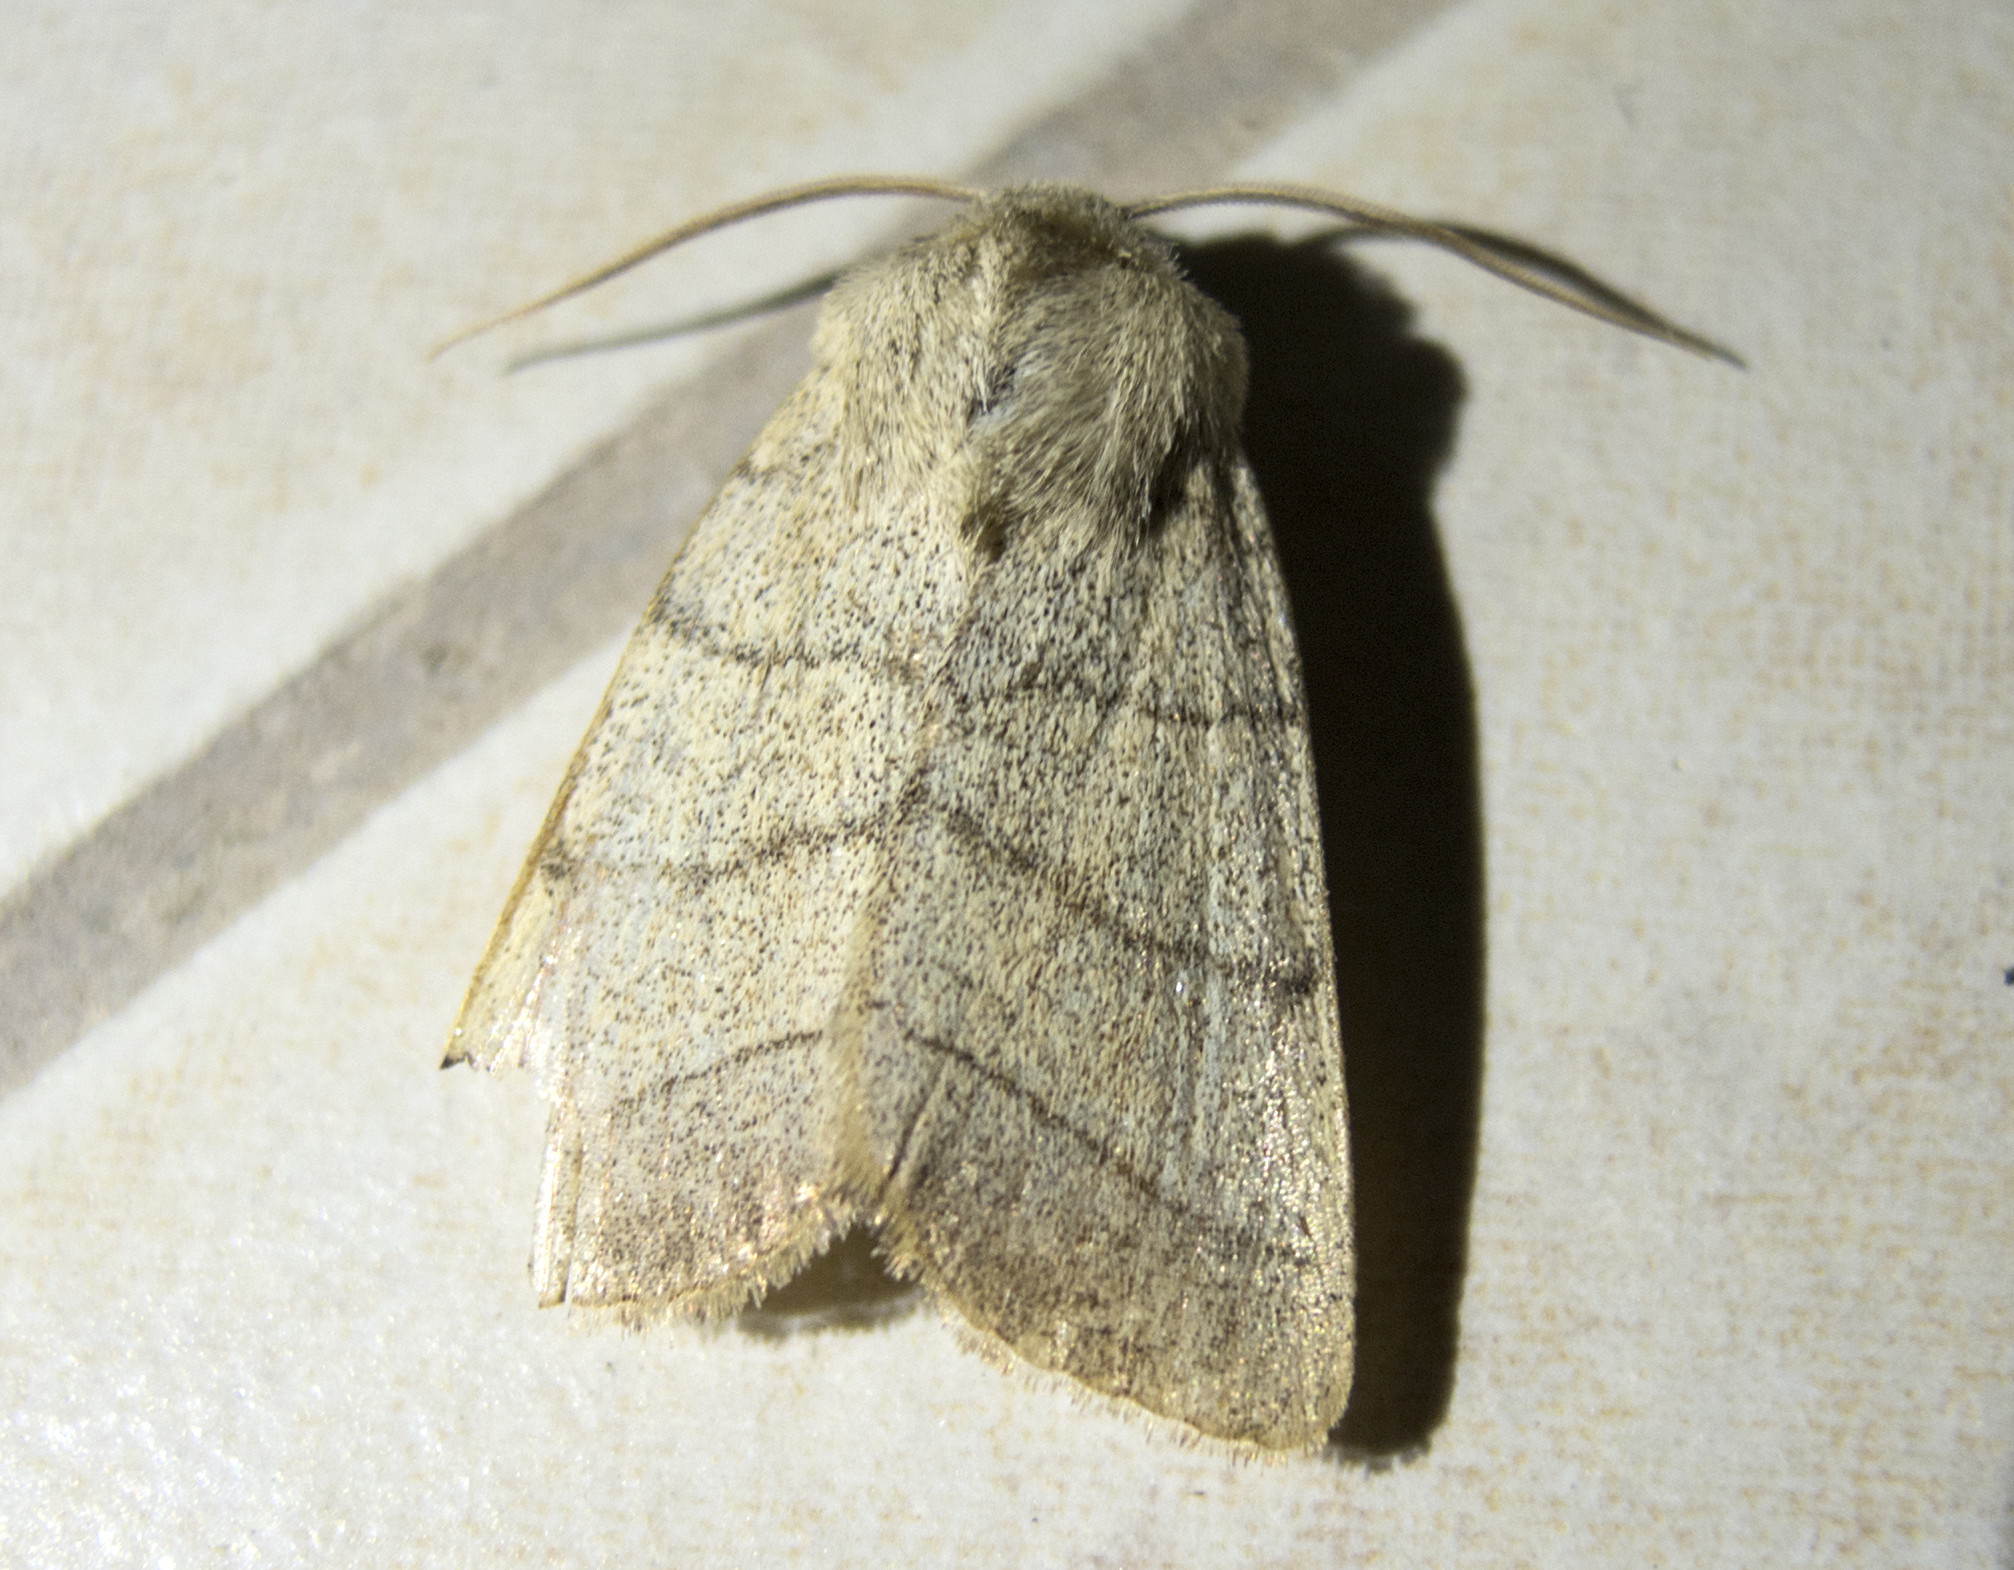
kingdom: Animalia
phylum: Arthropoda
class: Insecta
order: Lepidoptera
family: Noctuidae
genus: Charanyca
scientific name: Charanyca trigrammica
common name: Treble lines
